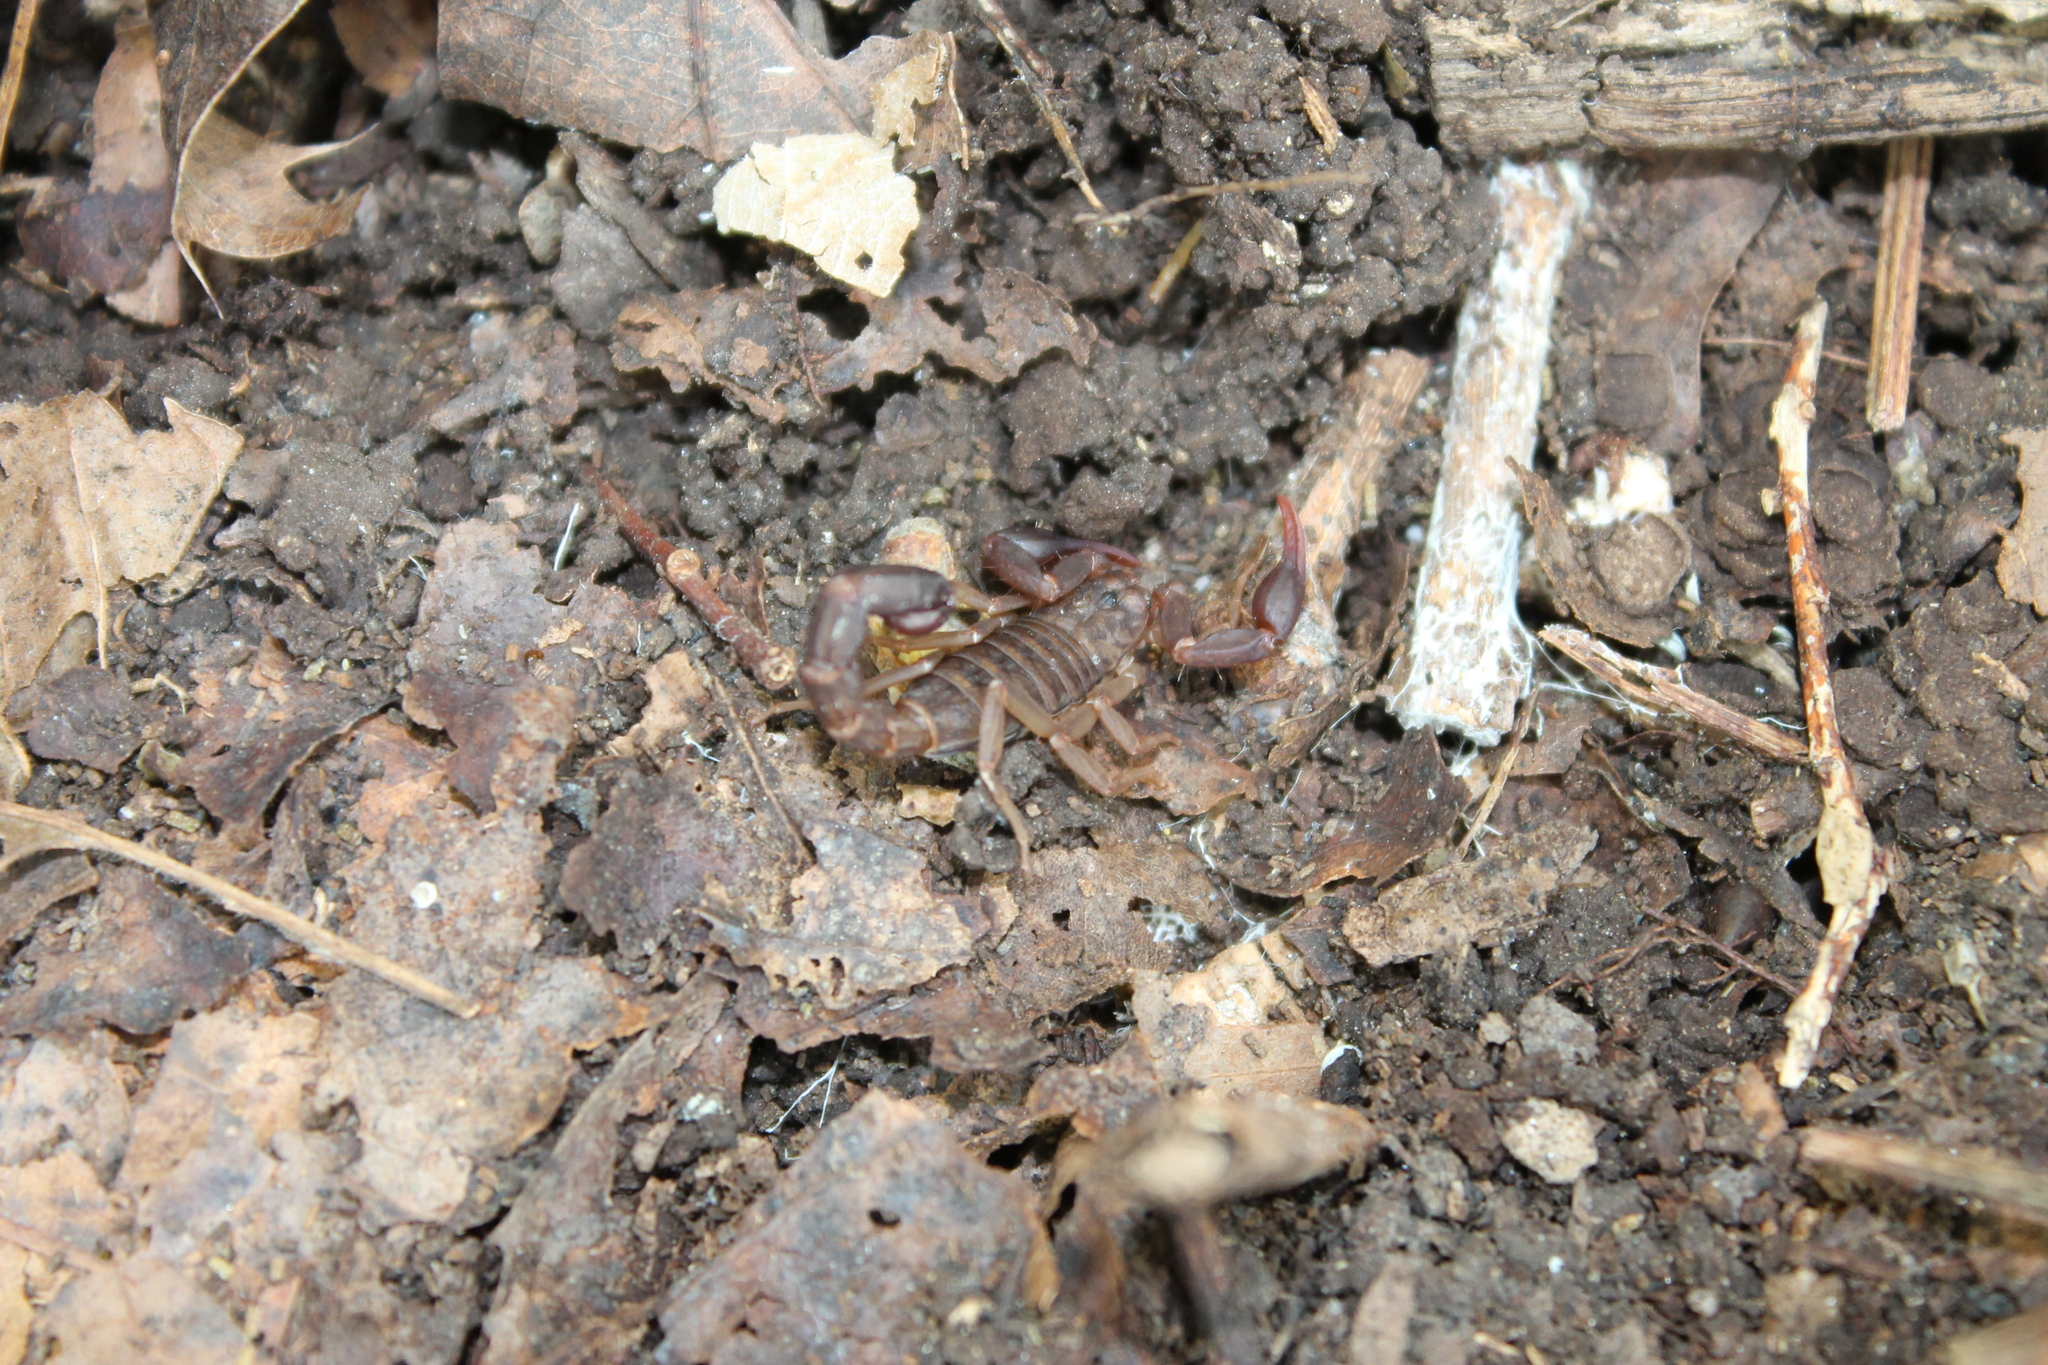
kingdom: Animalia
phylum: Arthropoda
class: Arachnida
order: Scorpiones
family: Vaejovidae
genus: Vaejovis
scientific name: Vaejovis carolinianus
